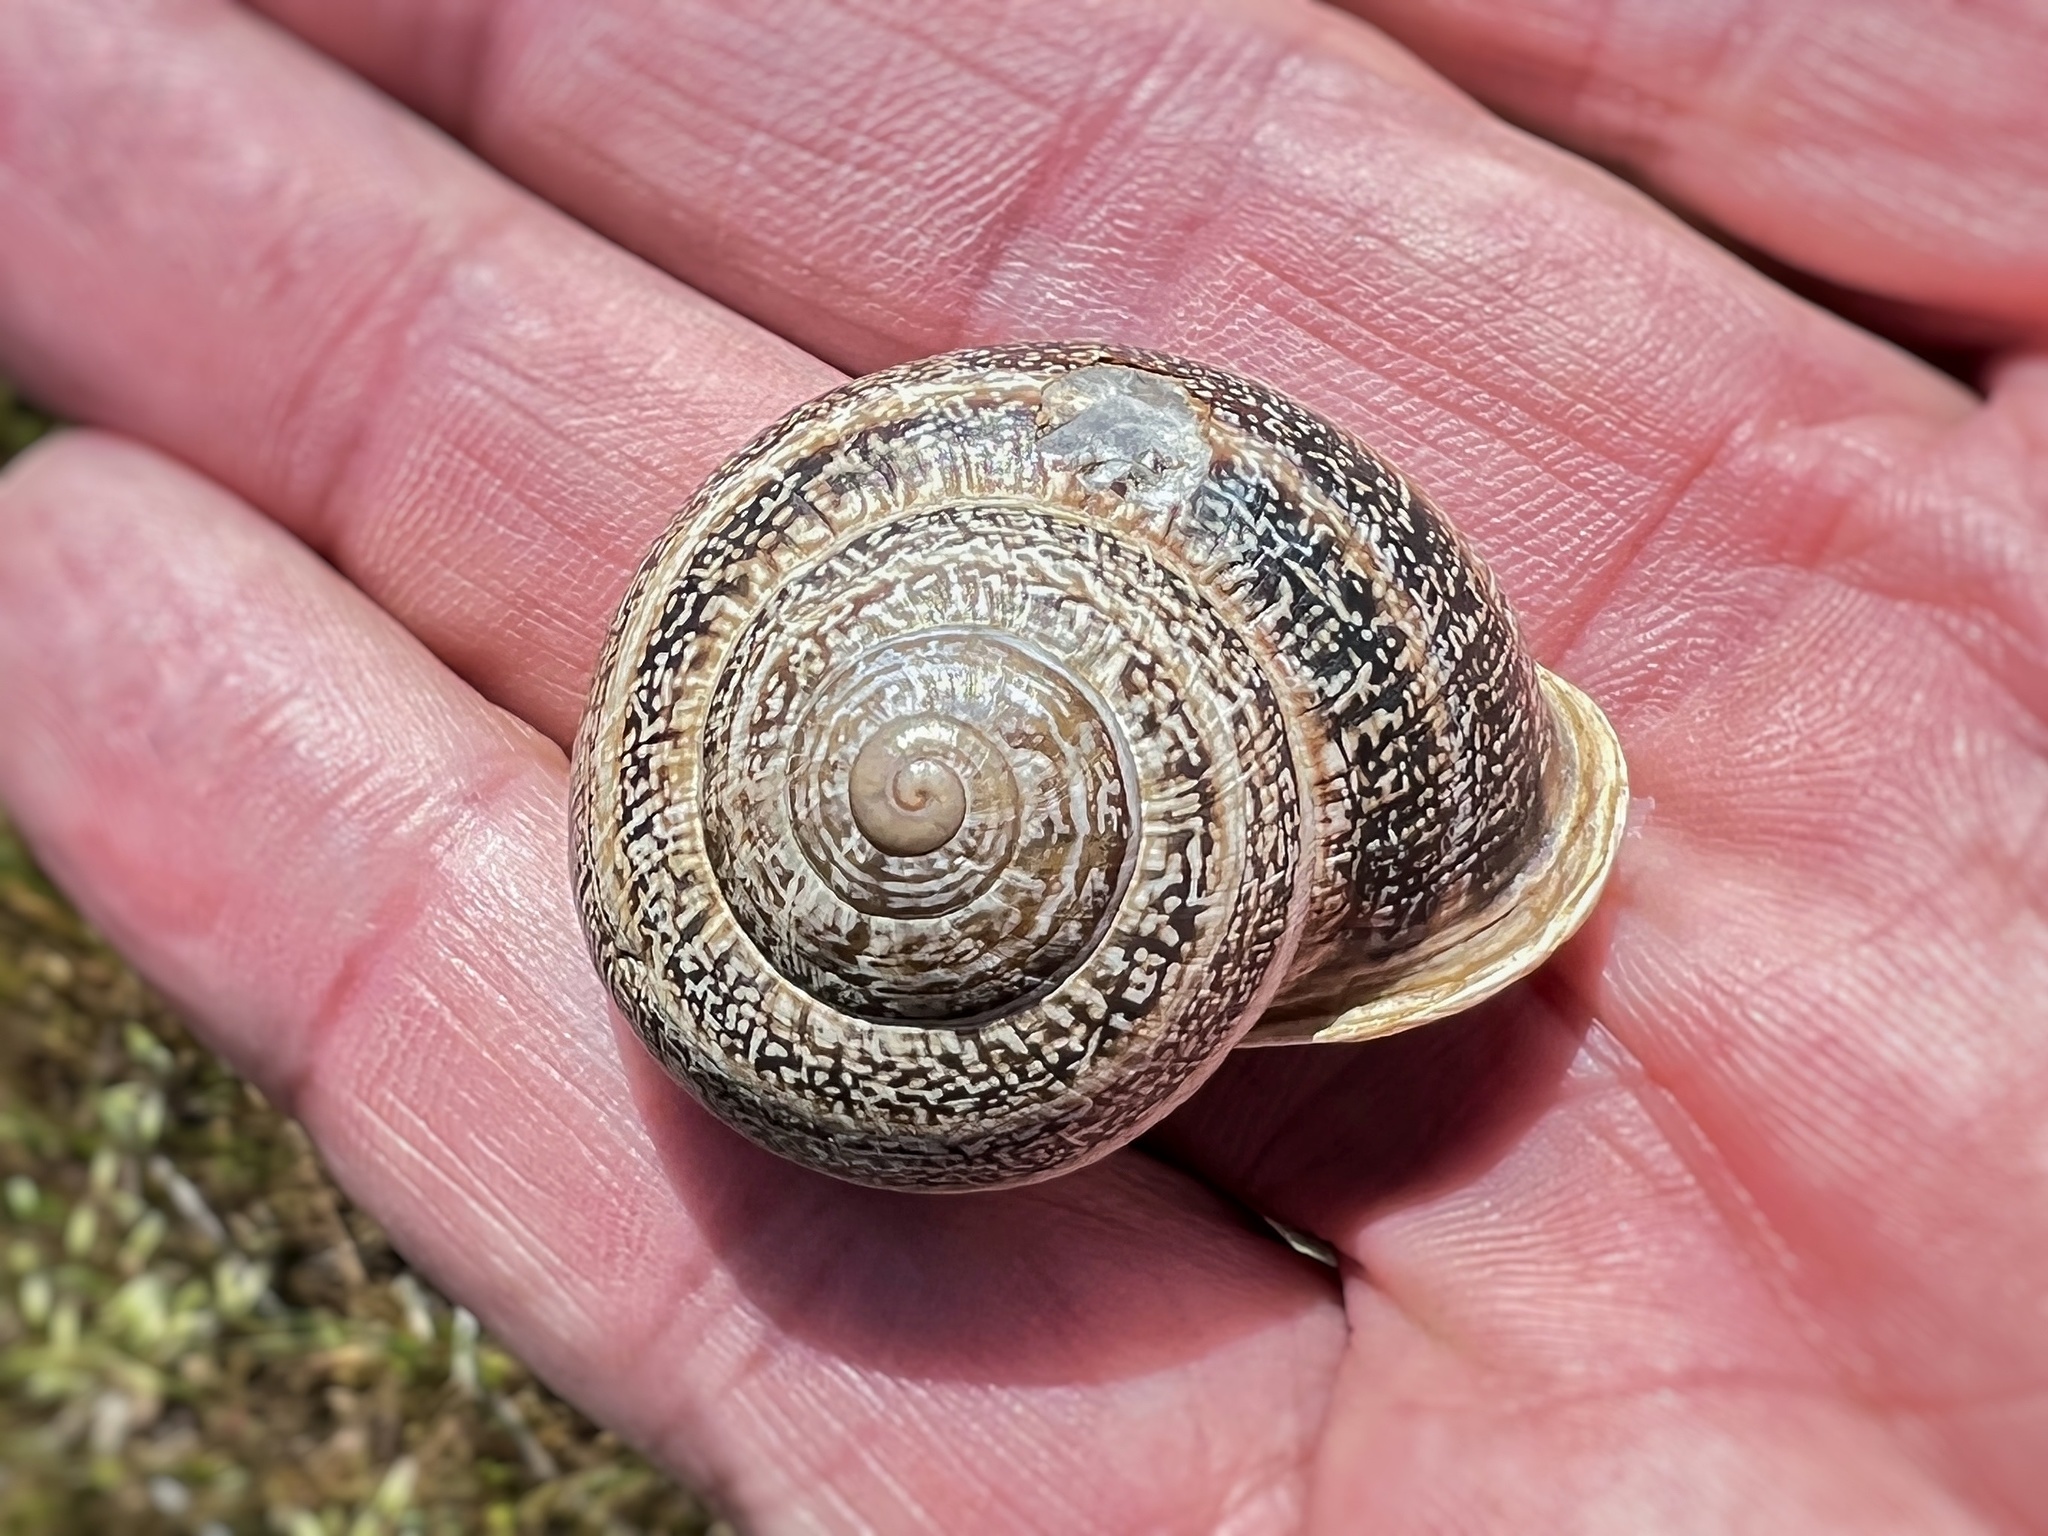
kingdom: Animalia
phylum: Mollusca
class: Gastropoda
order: Stylommatophora
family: Helicidae
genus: Otala
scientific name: Otala lactea
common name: Milk snail
